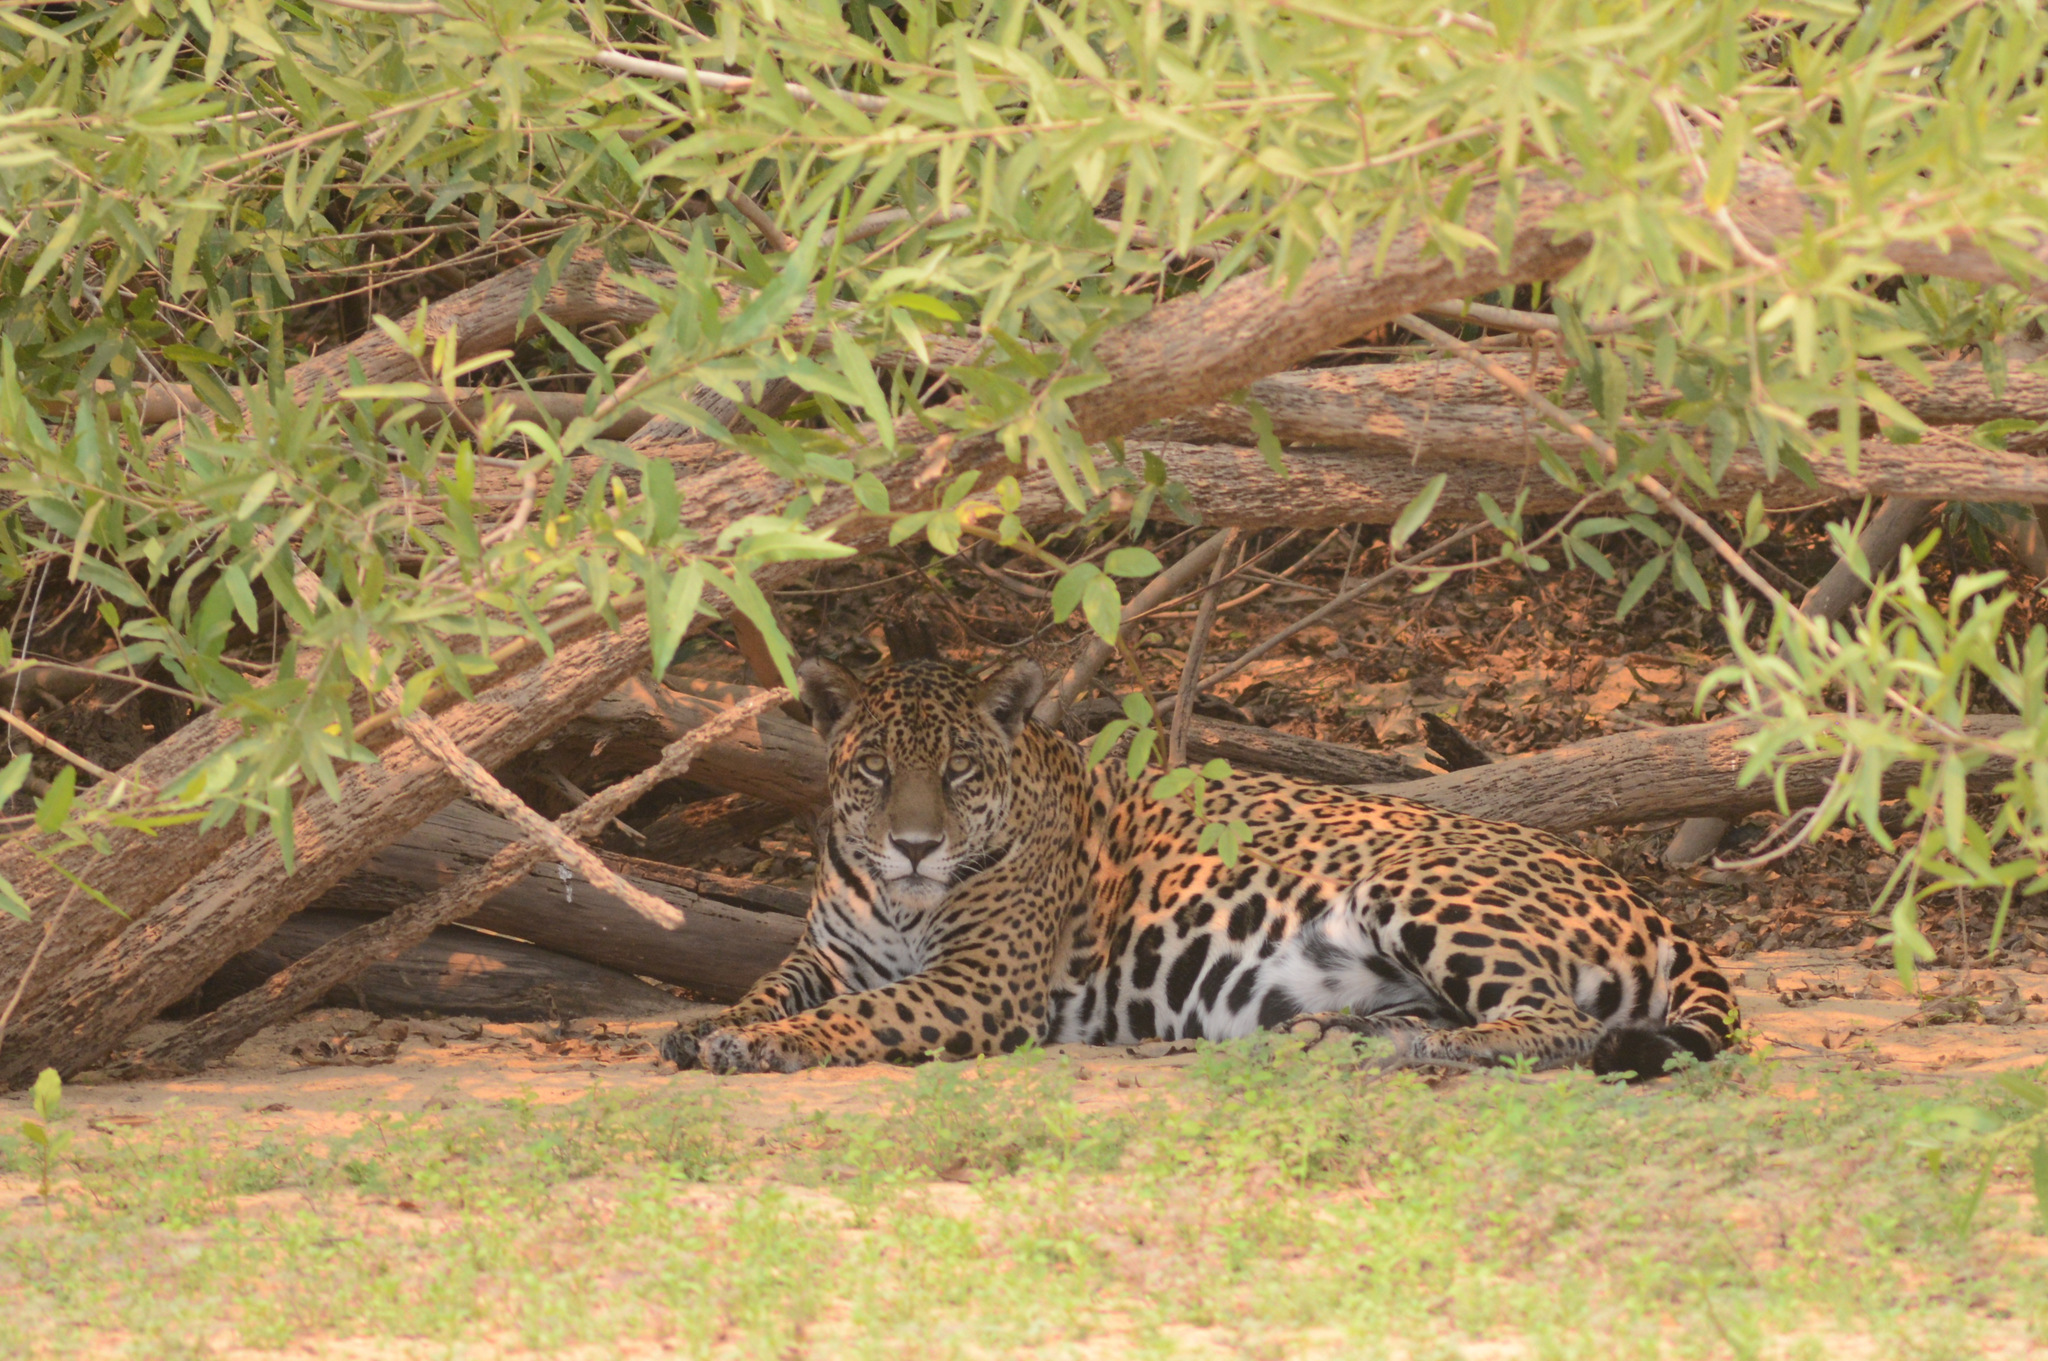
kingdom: Animalia
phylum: Chordata
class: Mammalia
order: Carnivora
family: Felidae
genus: Panthera
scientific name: Panthera onca
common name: Jaguar
